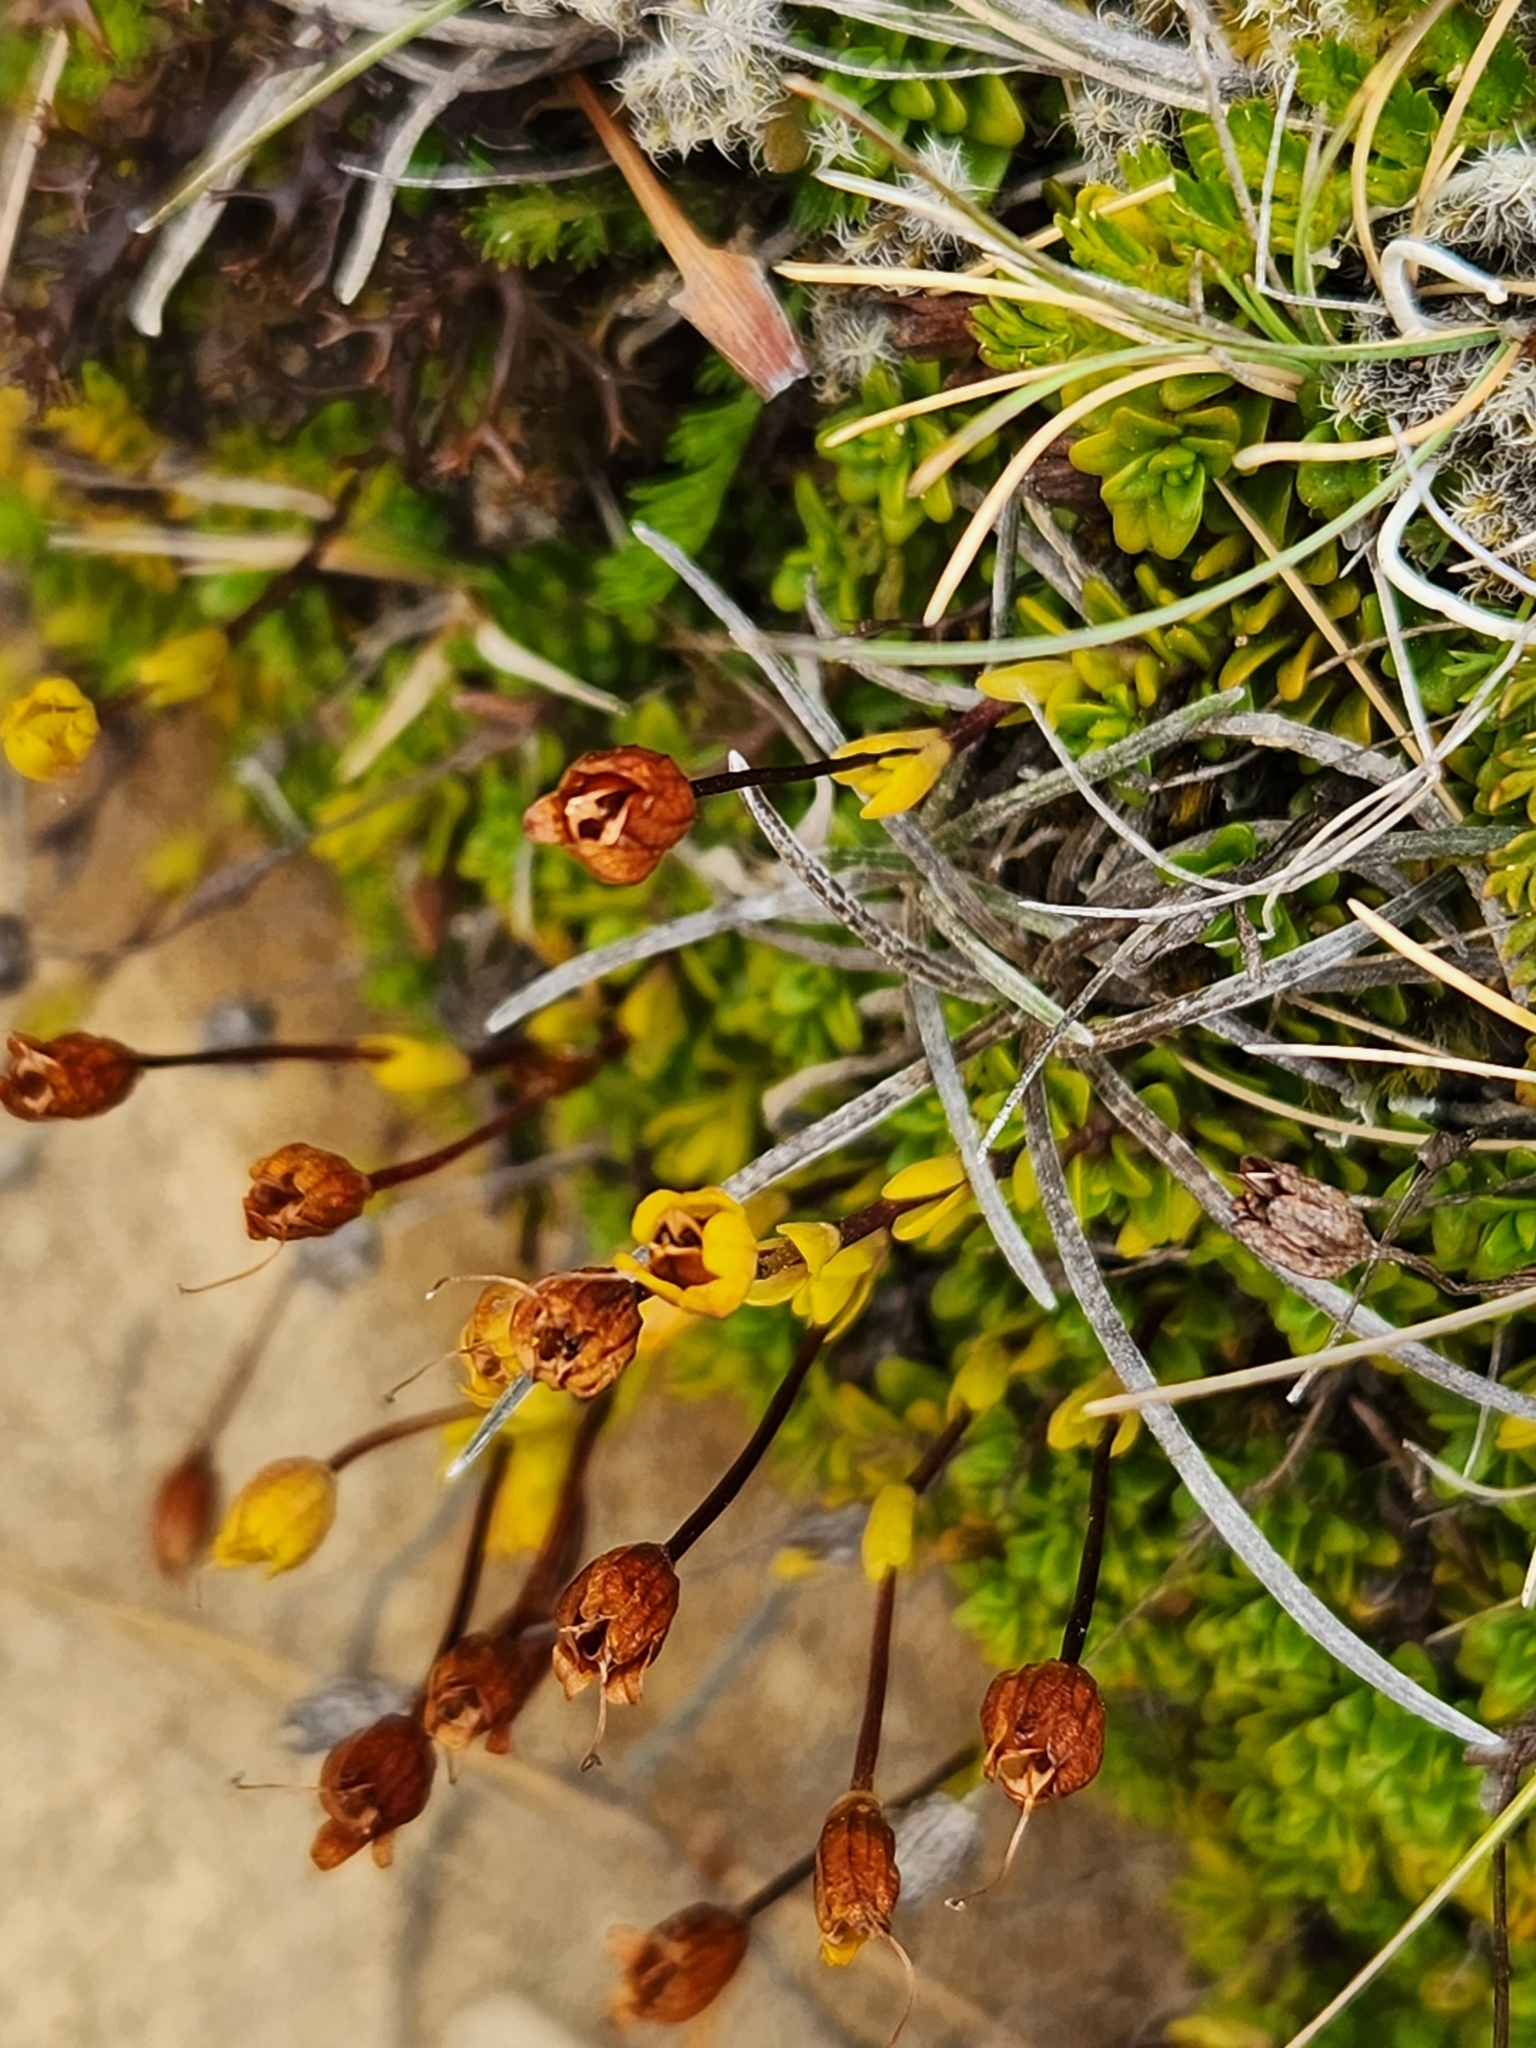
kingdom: Plantae
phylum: Tracheophyta
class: Magnoliopsida
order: Lamiales
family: Plantaginaceae
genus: Ourisia
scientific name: Ourisia caespitosa
